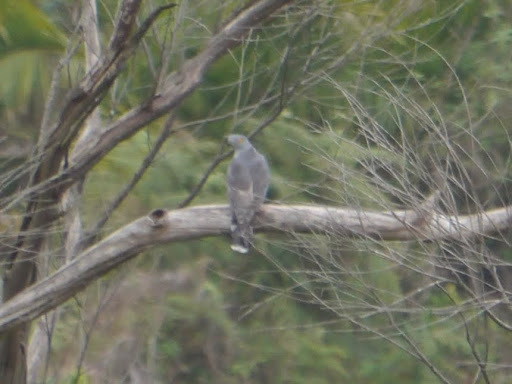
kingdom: Animalia
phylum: Chordata
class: Aves
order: Accipitriformes
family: Accipitridae
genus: Aviceda
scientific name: Aviceda cuculoides
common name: African cuckoo-hawk
